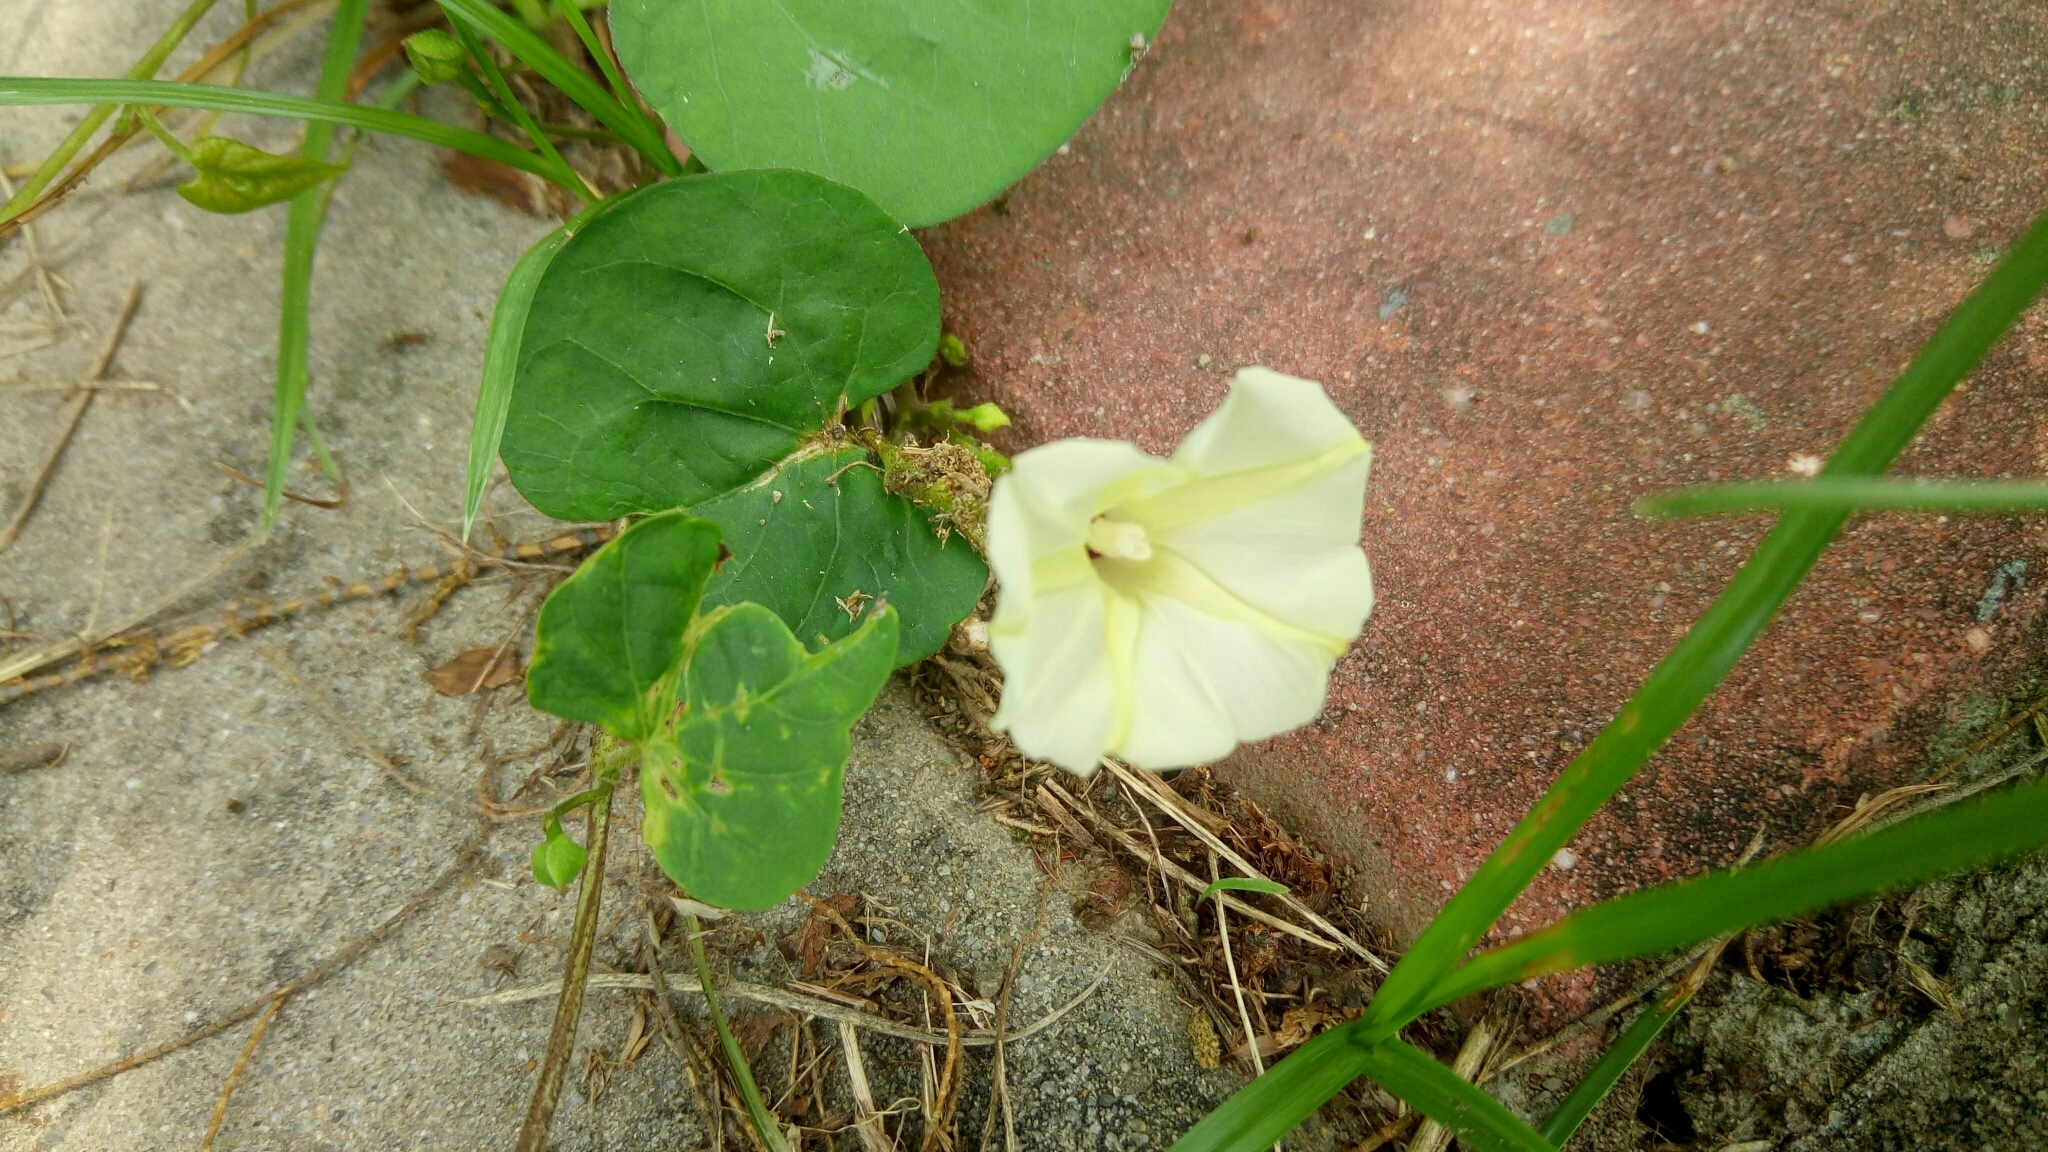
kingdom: Plantae
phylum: Tracheophyta
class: Magnoliopsida
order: Solanales
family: Convolvulaceae
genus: Ipomoea
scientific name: Ipomoea obscura
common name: Obscure morning-glory
